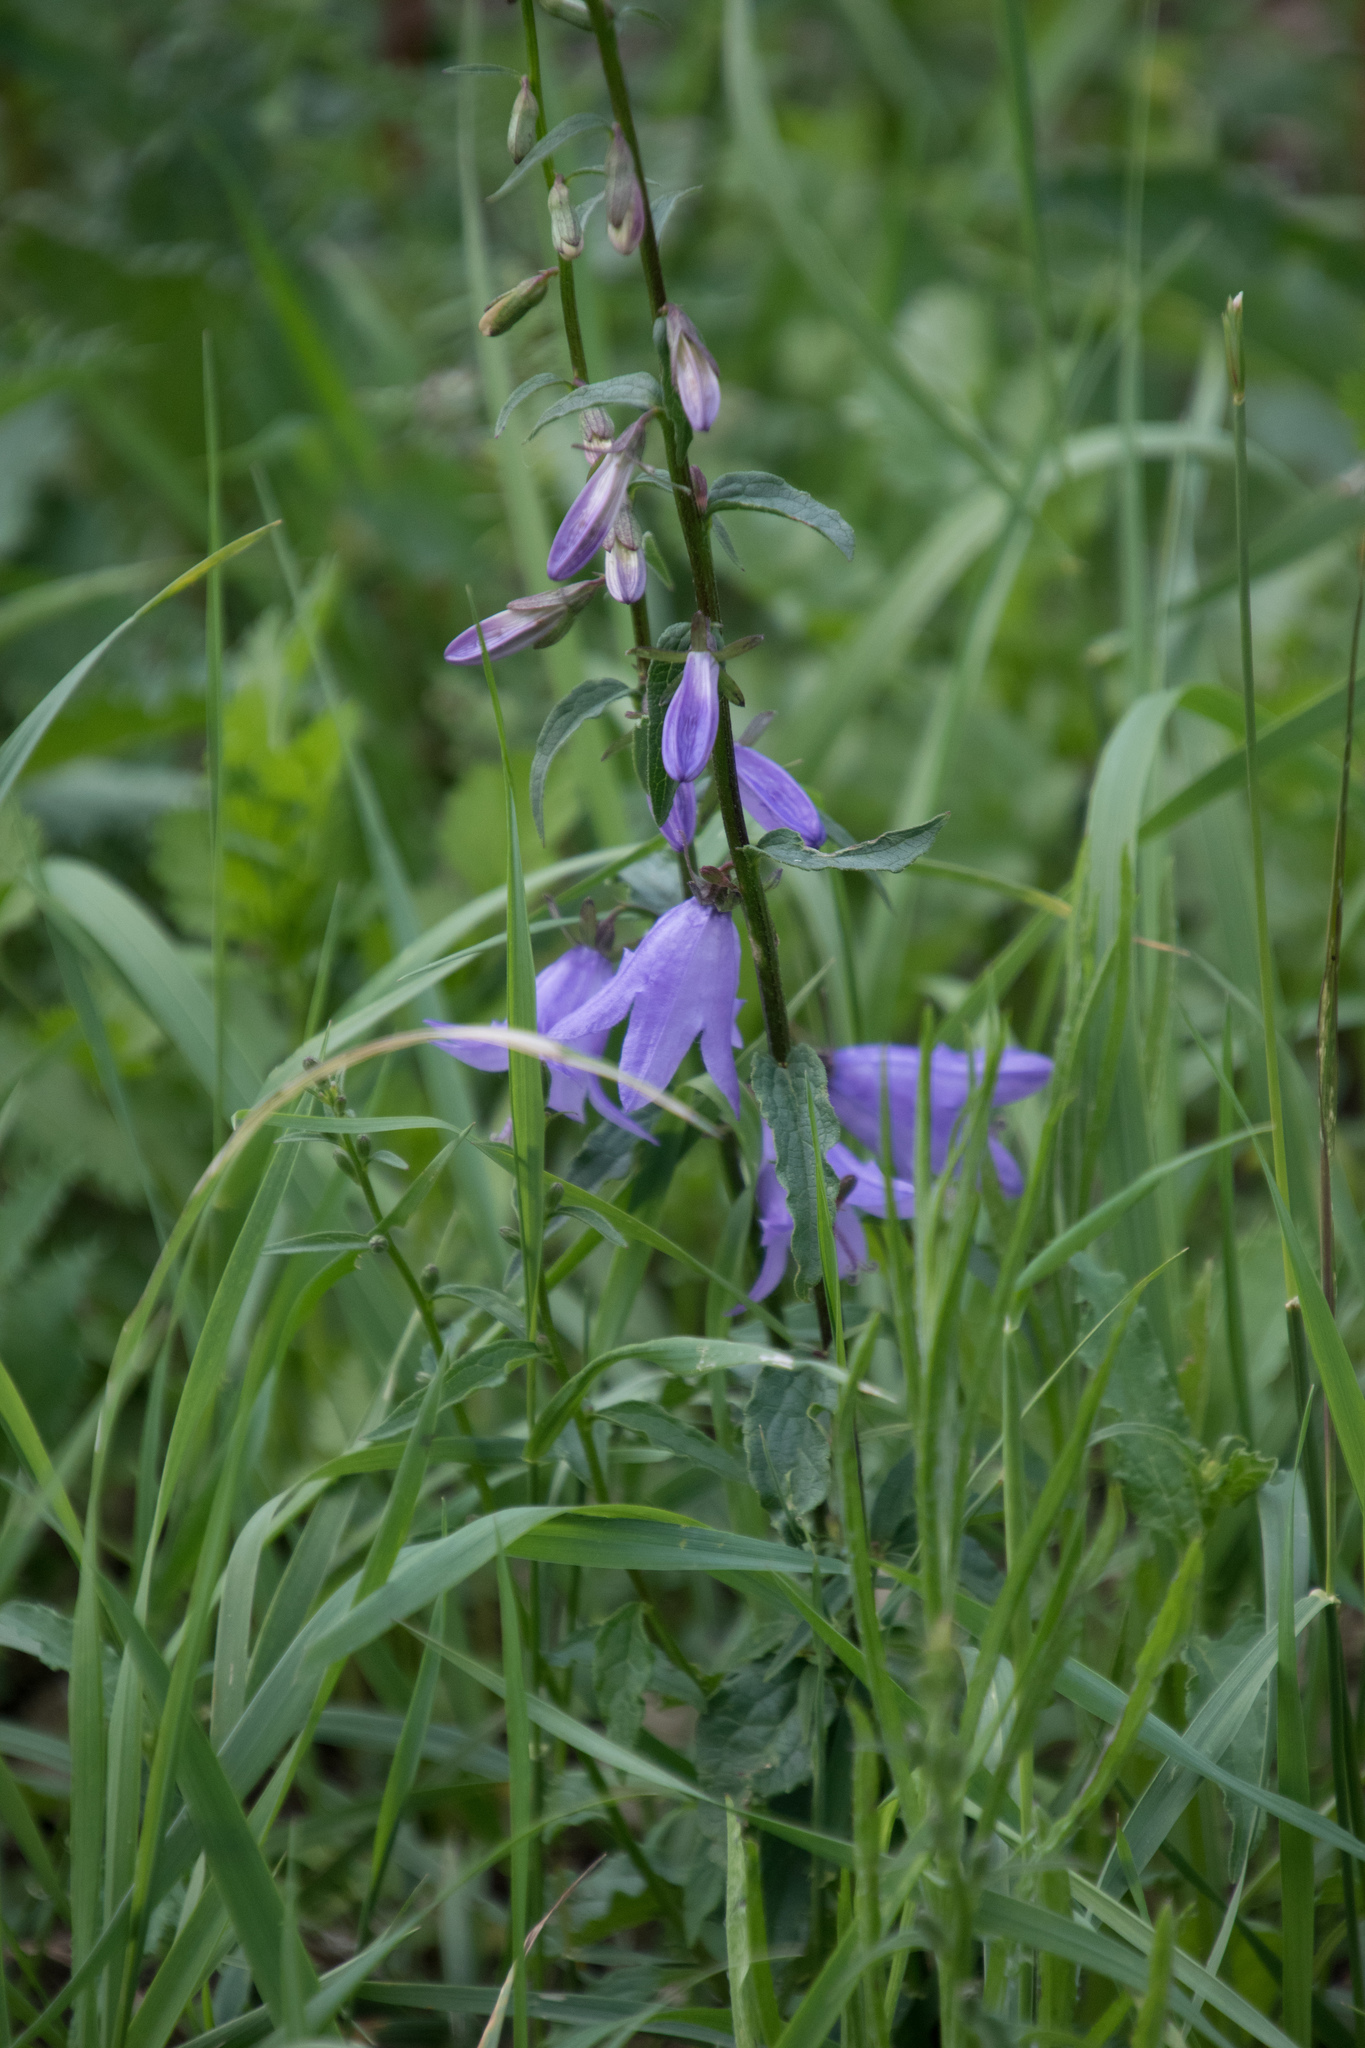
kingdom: Plantae
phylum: Tracheophyta
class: Magnoliopsida
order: Asterales
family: Campanulaceae
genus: Campanula
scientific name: Campanula rapunculoides
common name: Creeping bellflower
